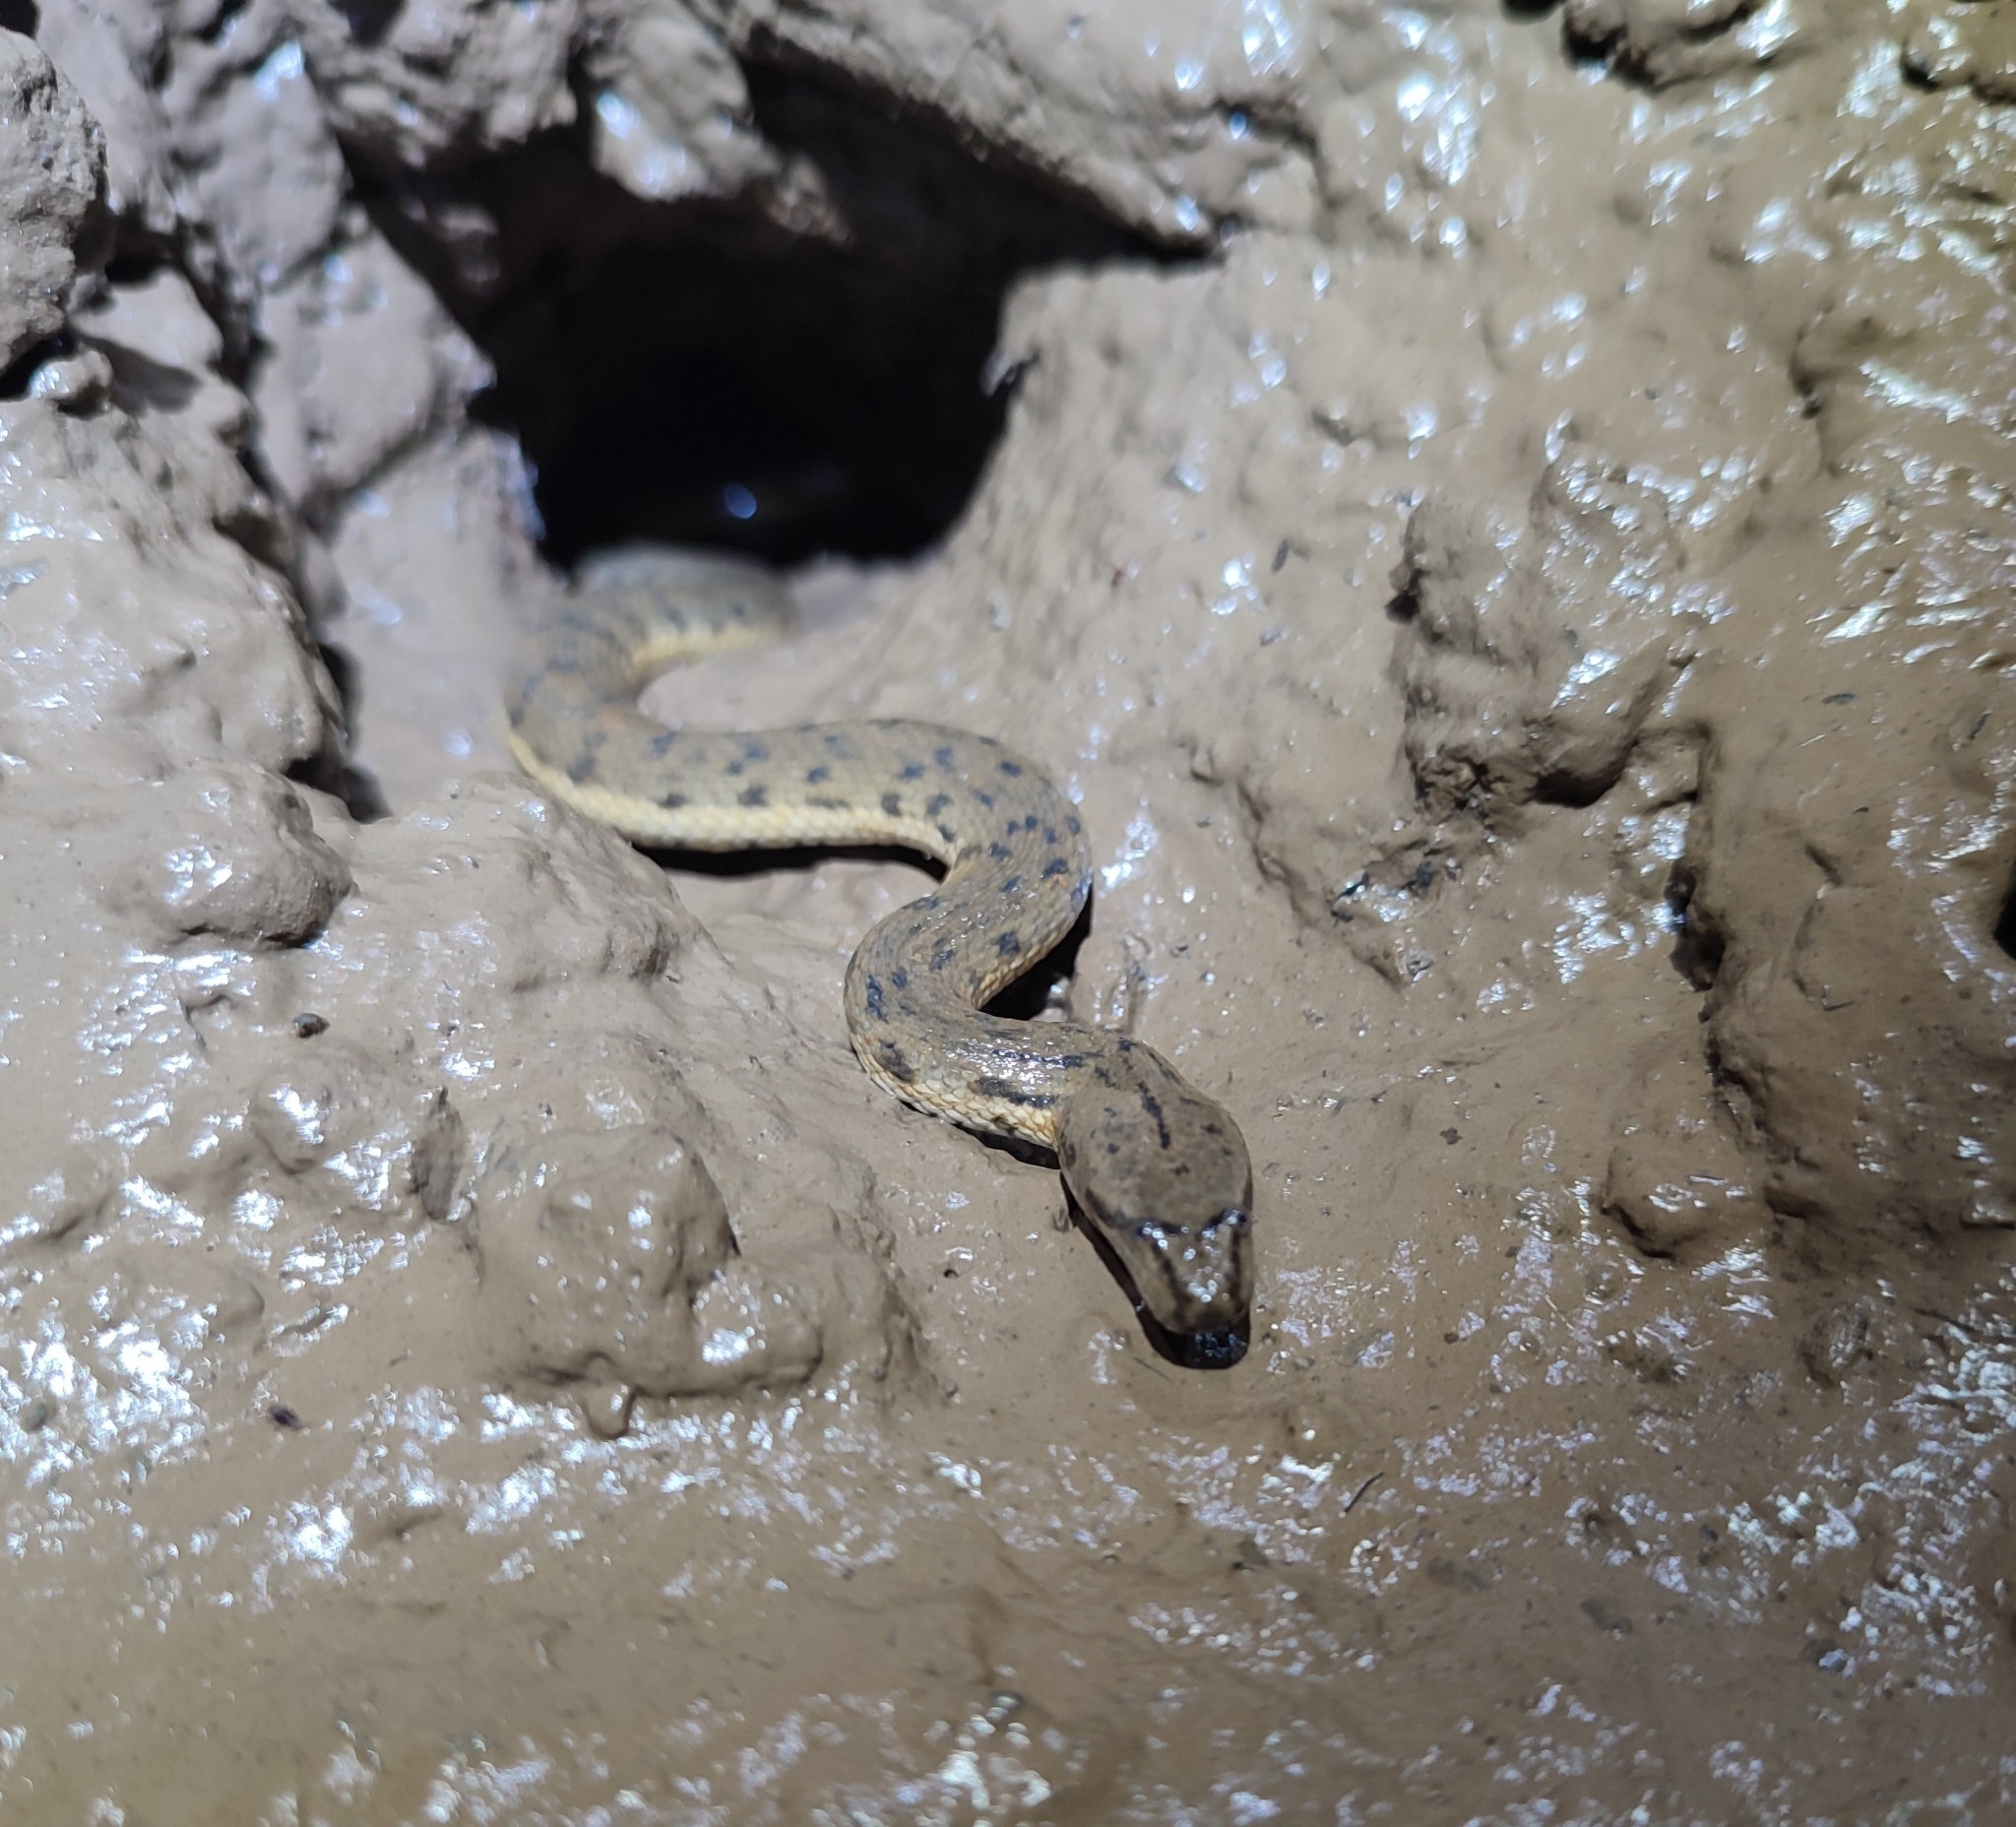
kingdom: Animalia
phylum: Chordata
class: Squamata
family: Homalopsidae
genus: Cerberus
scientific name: Cerberus schneiderii
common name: Southeast asian bockadam
